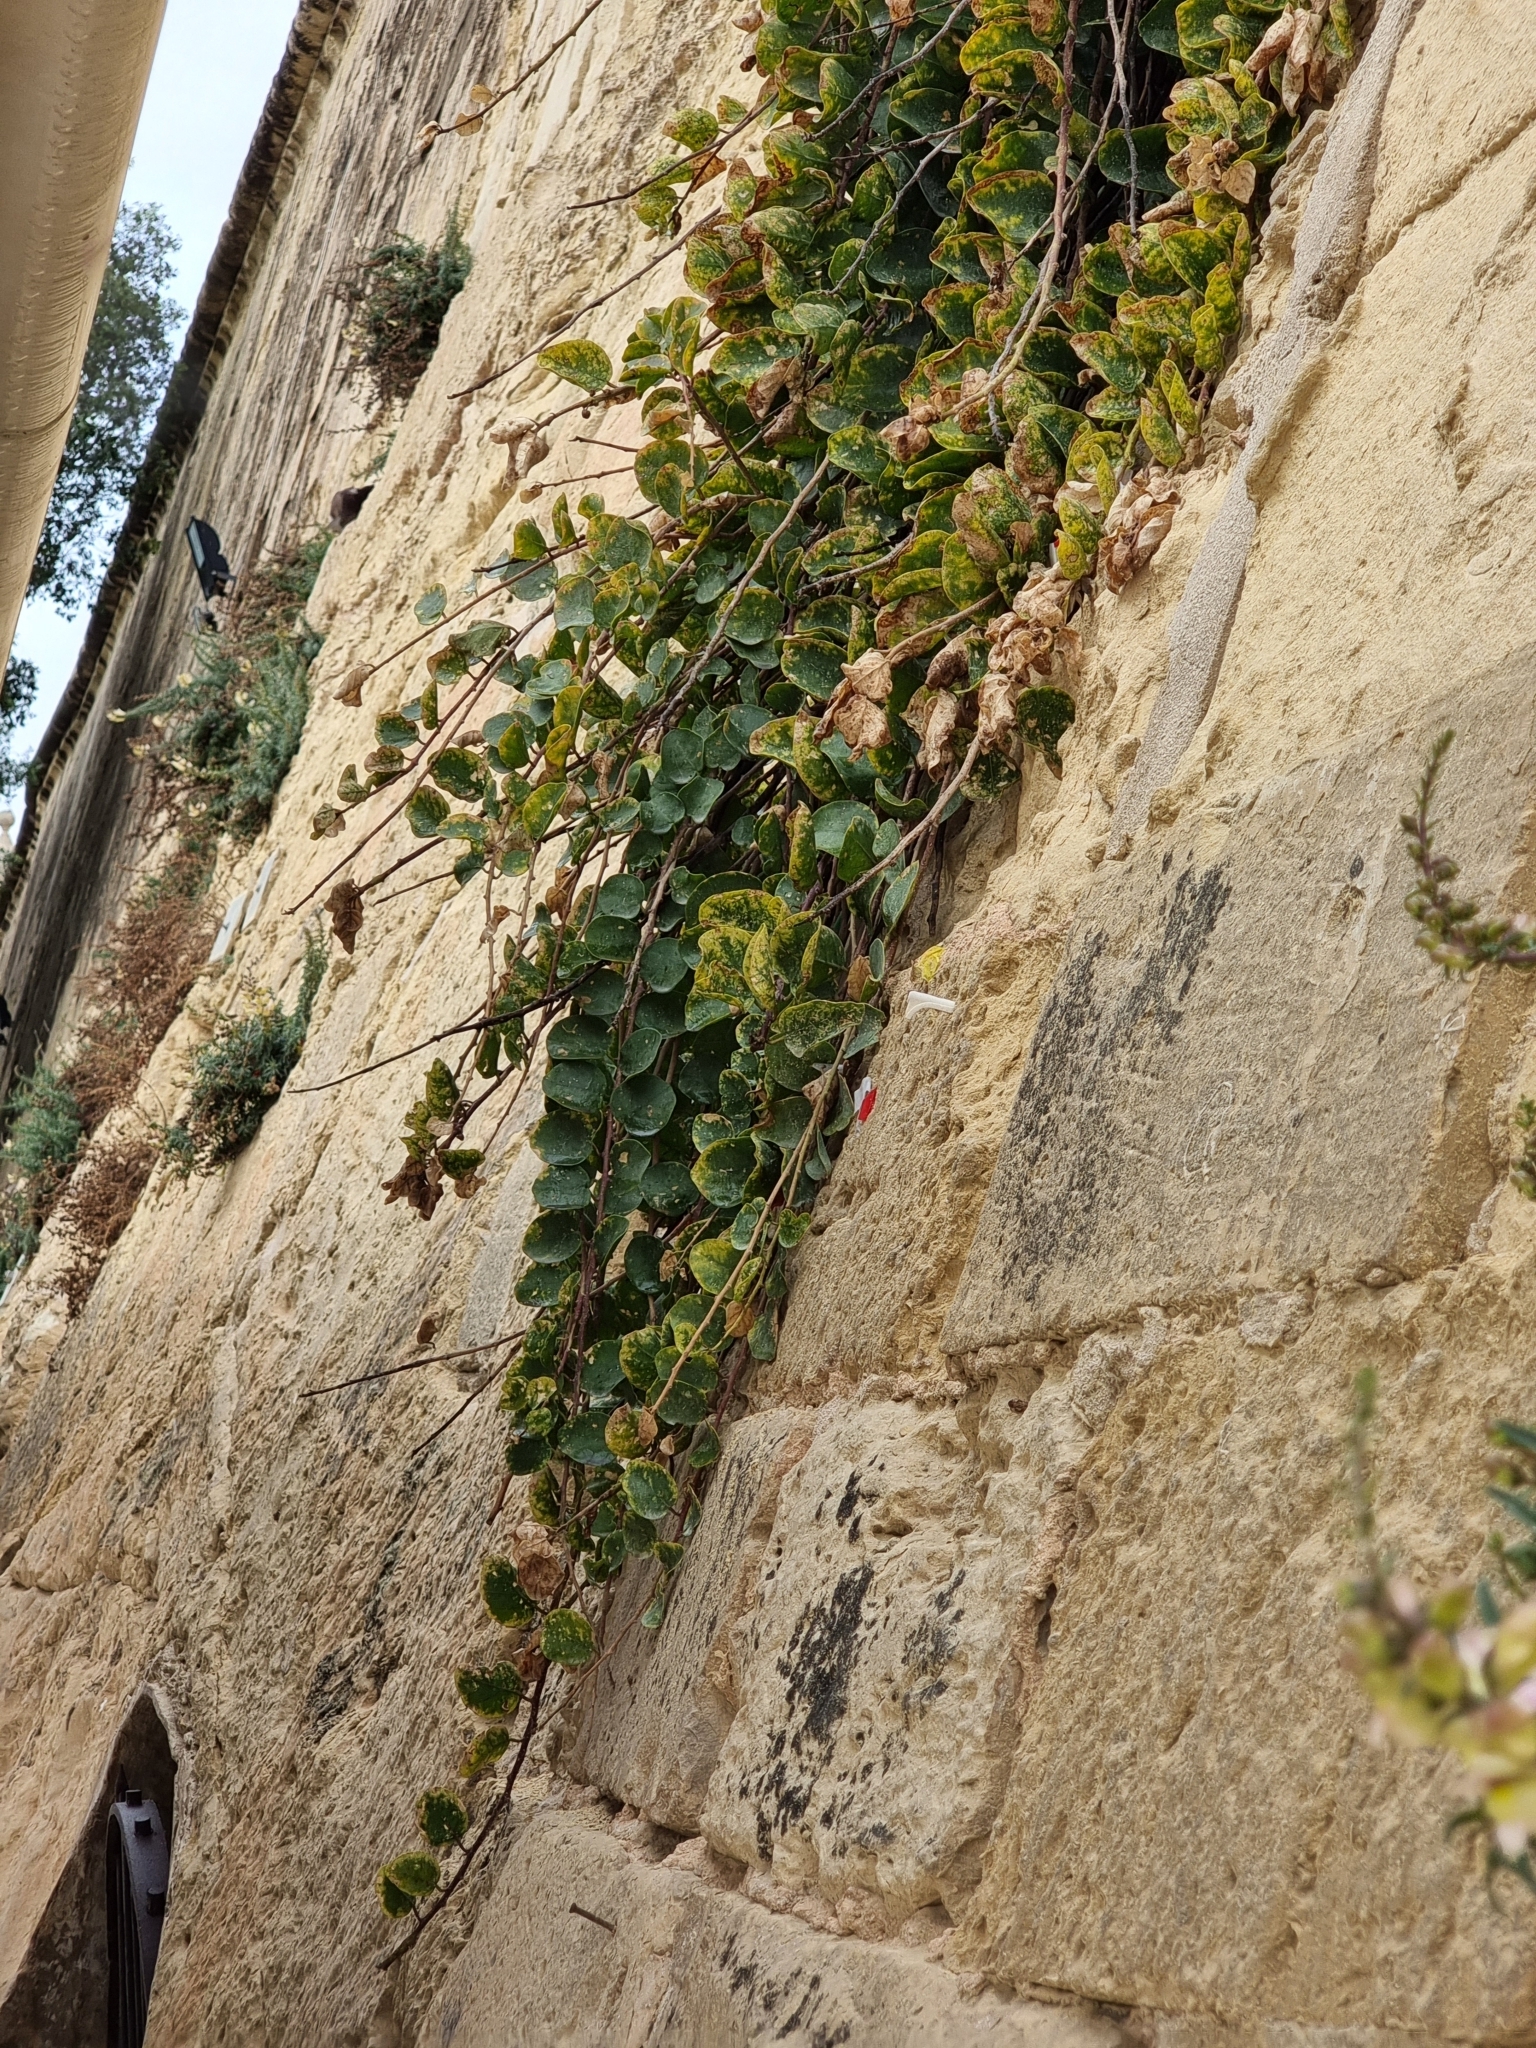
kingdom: Plantae
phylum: Tracheophyta
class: Magnoliopsida
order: Brassicales
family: Capparaceae
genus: Capparis
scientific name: Capparis orientalis
